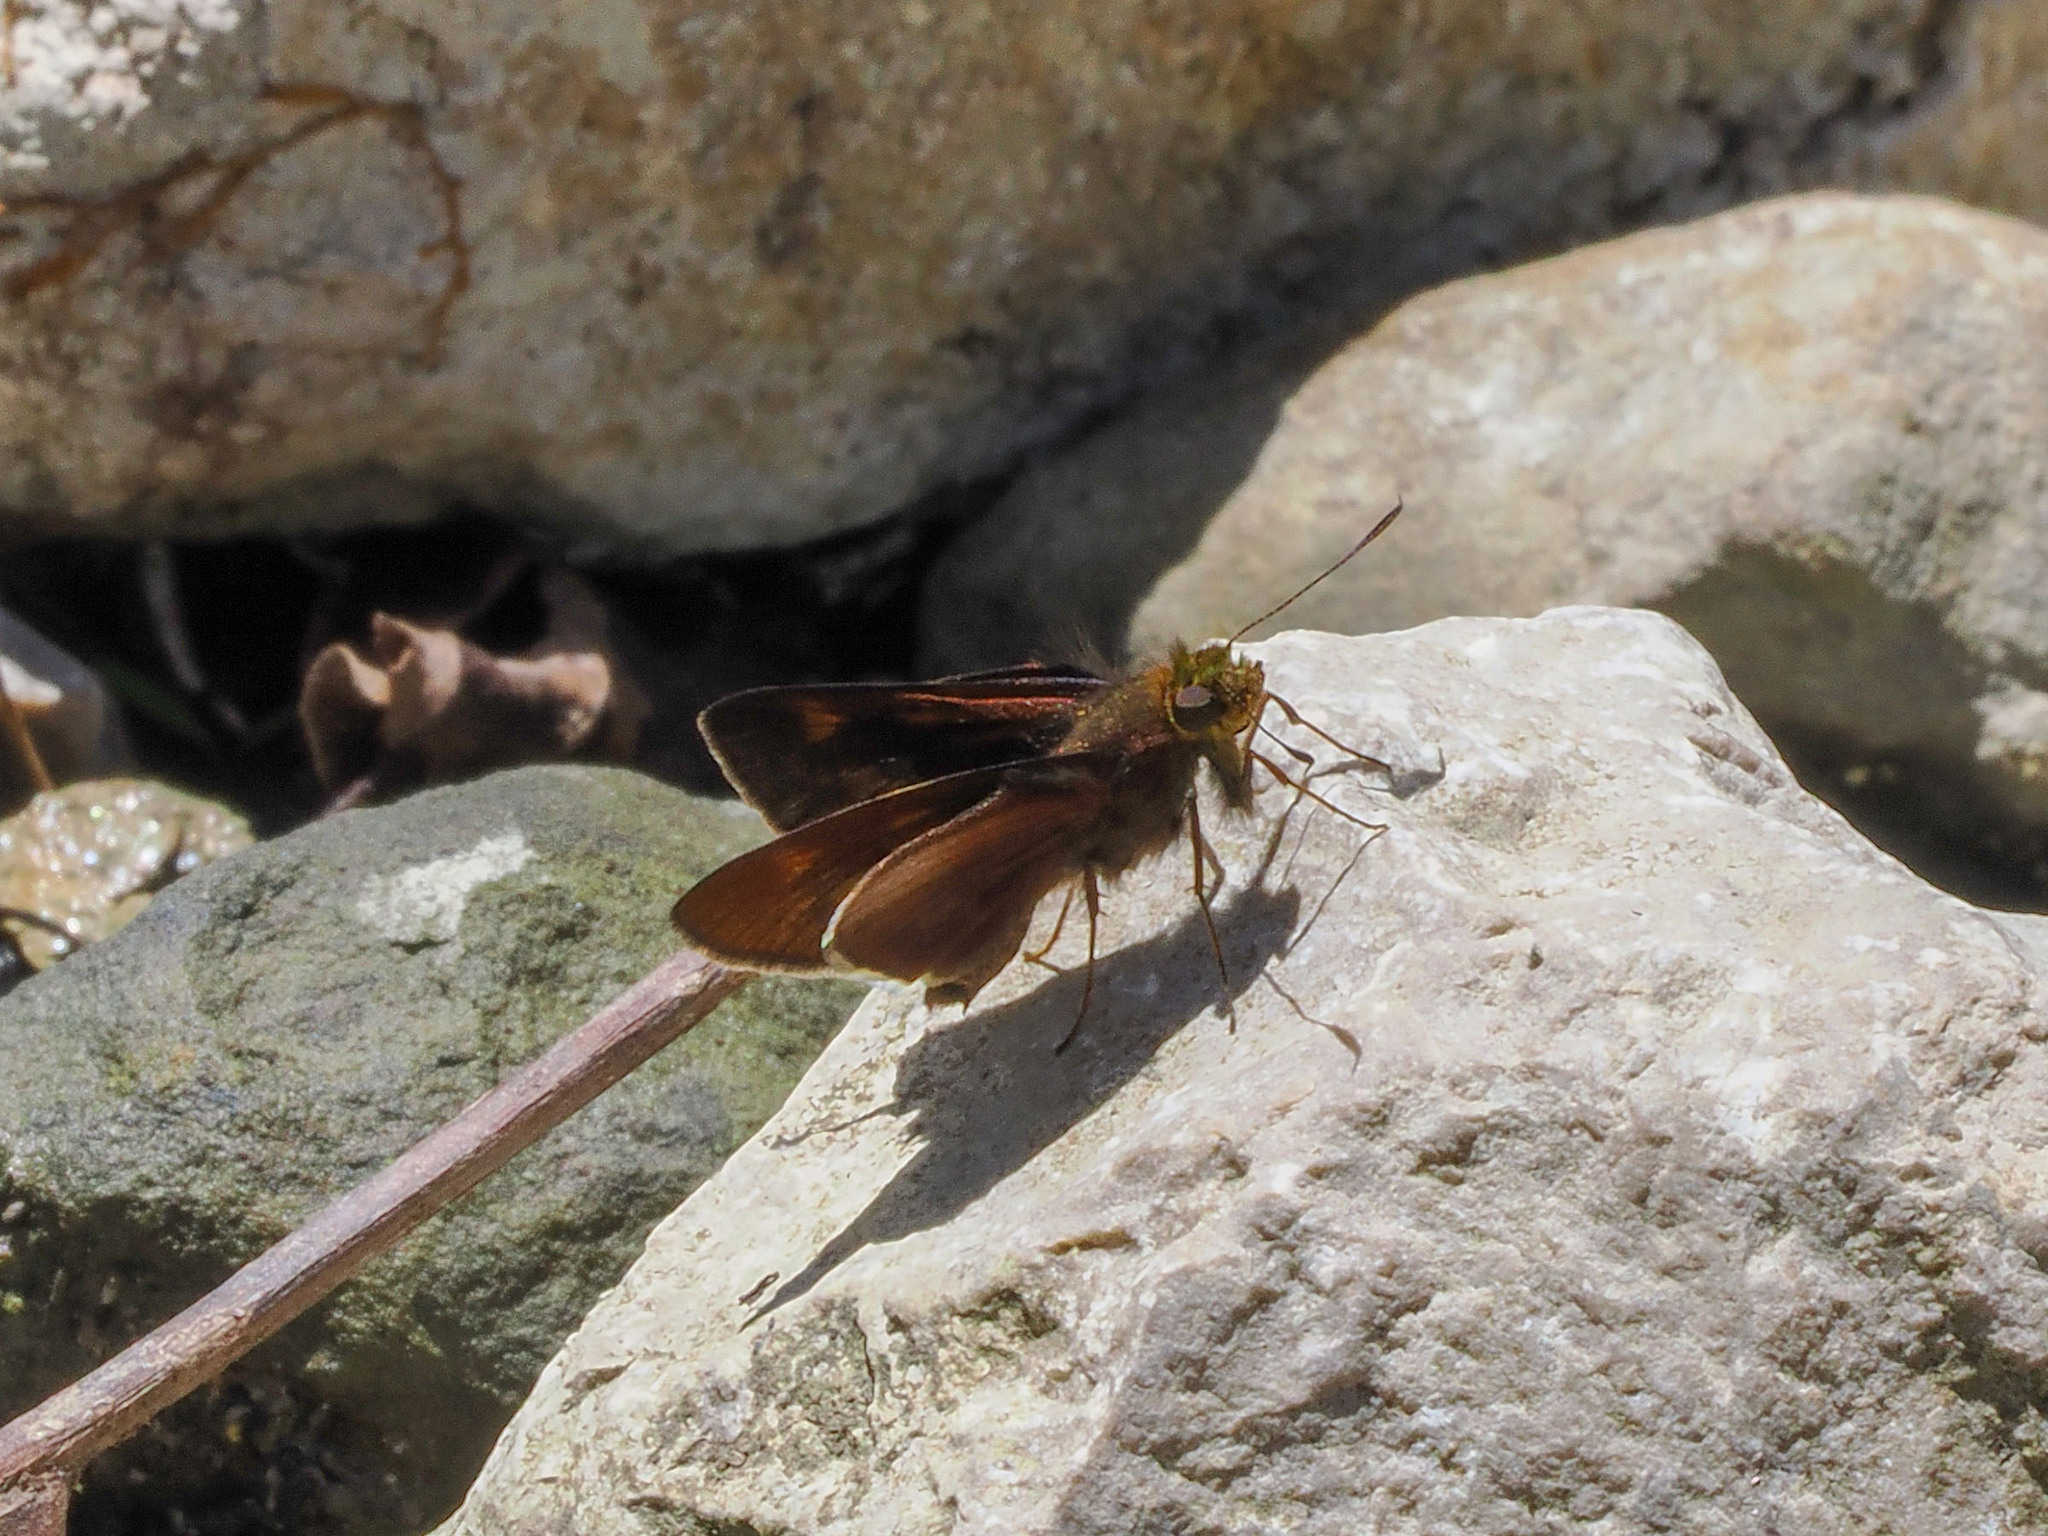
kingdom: Animalia
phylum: Arthropoda
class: Insecta
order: Lepidoptera
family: Hesperiidae
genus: Mimene
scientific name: Mimene
